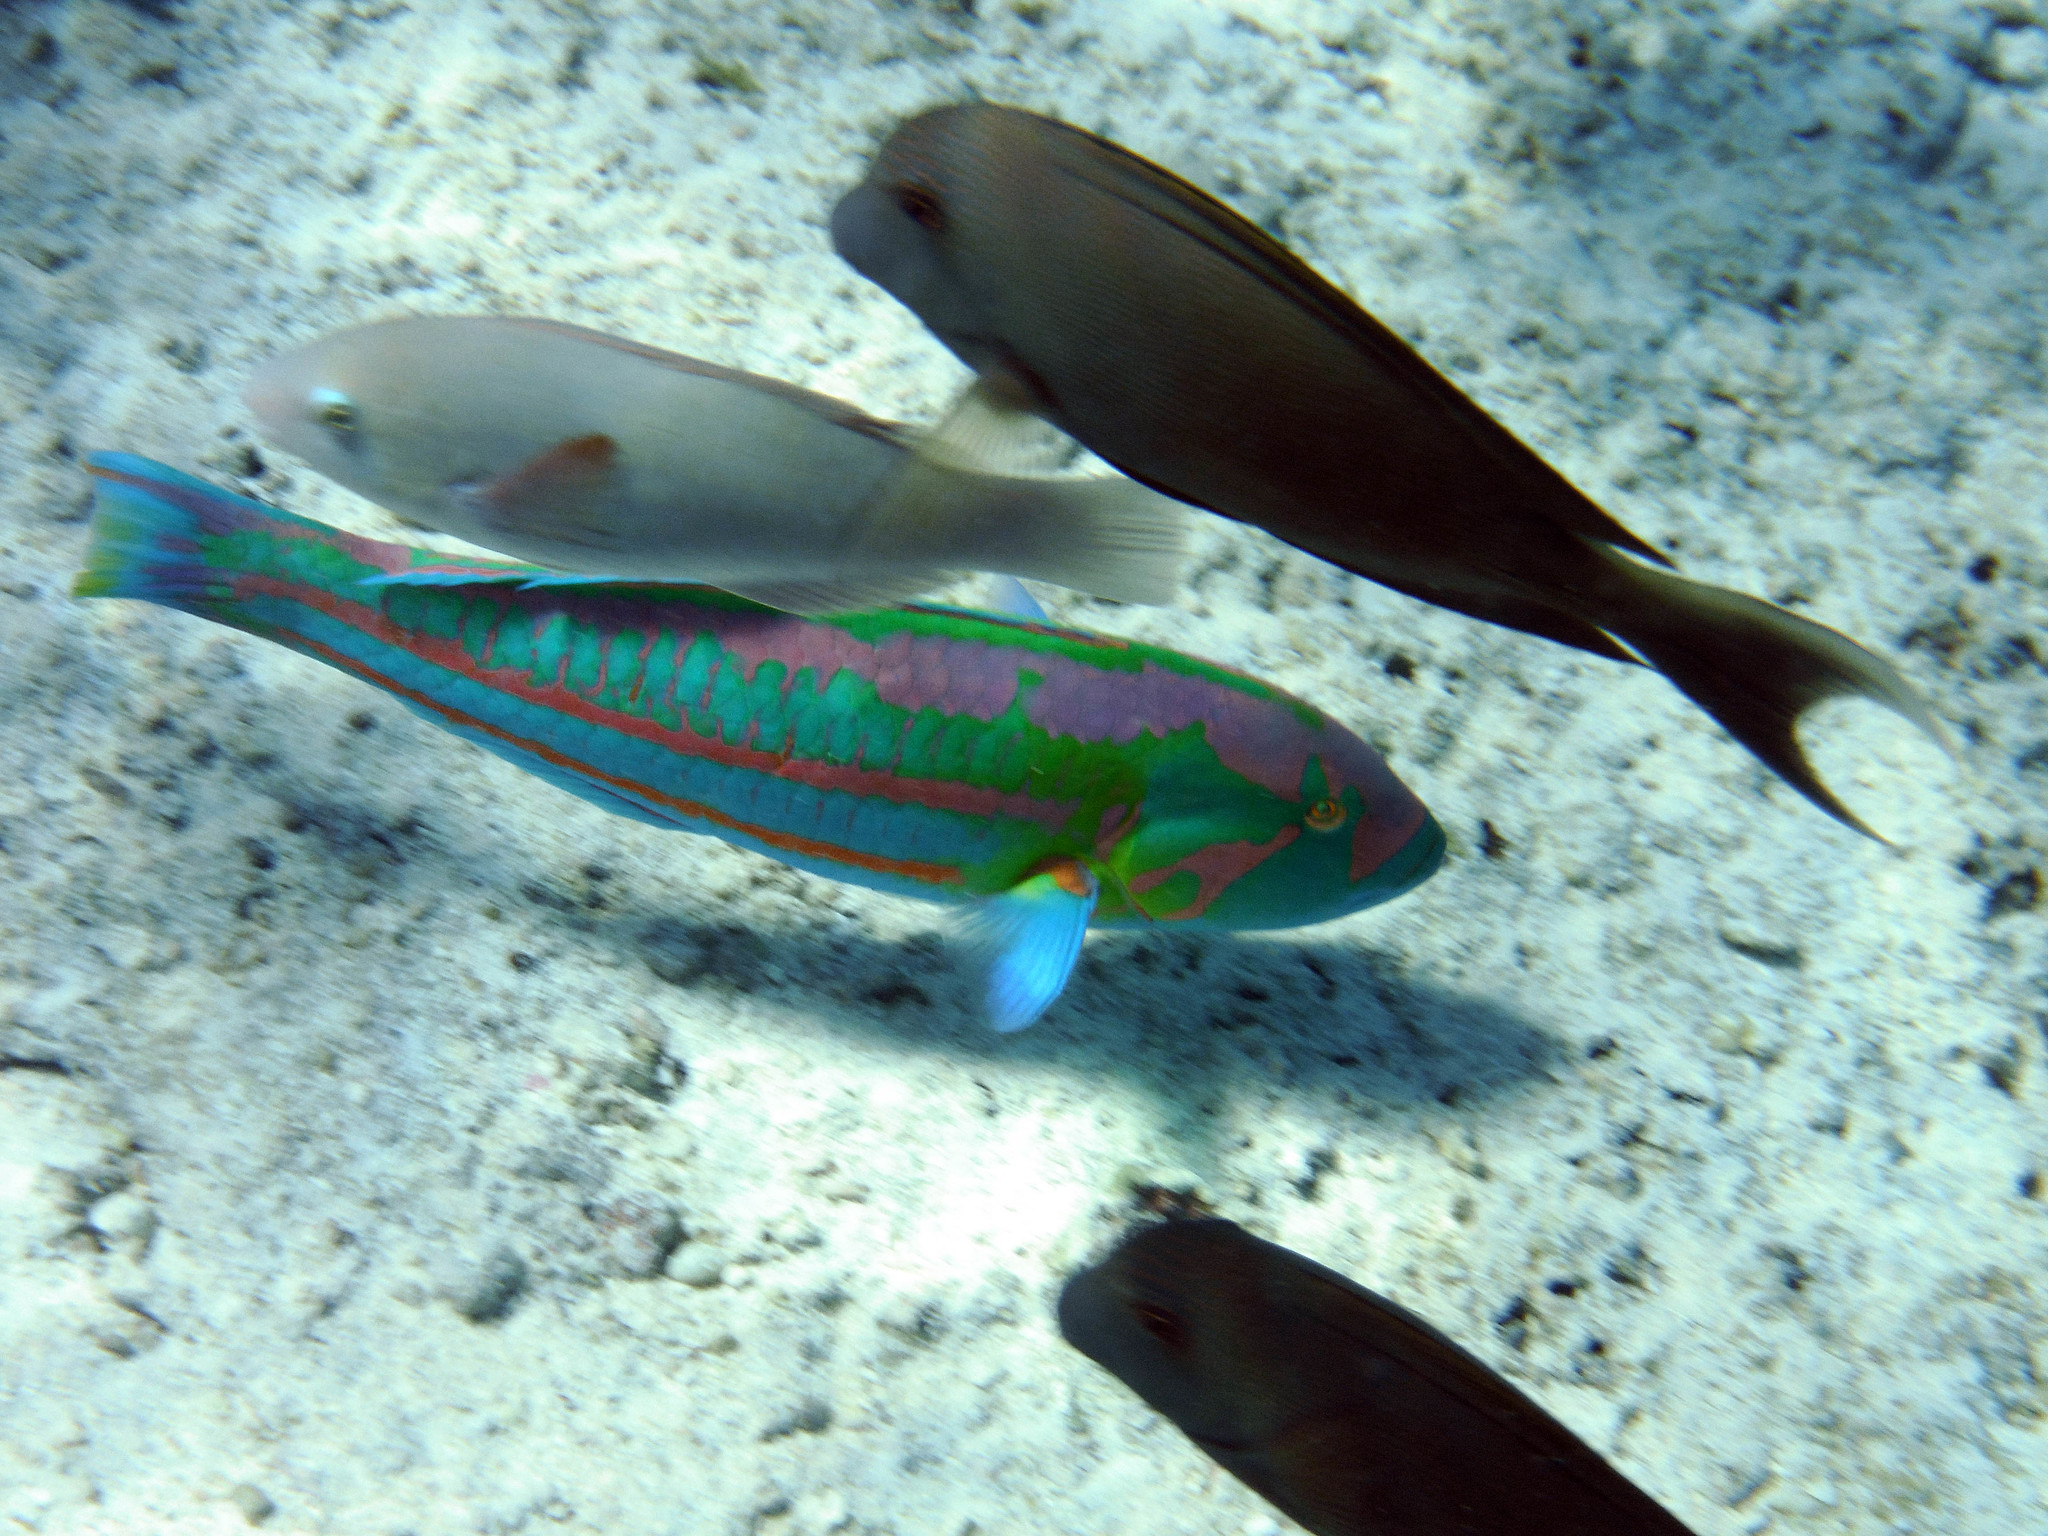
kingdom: Animalia
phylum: Chordata
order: Perciformes
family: Labridae
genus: Thalassoma
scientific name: Thalassoma purpureum
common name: Parrotfish
